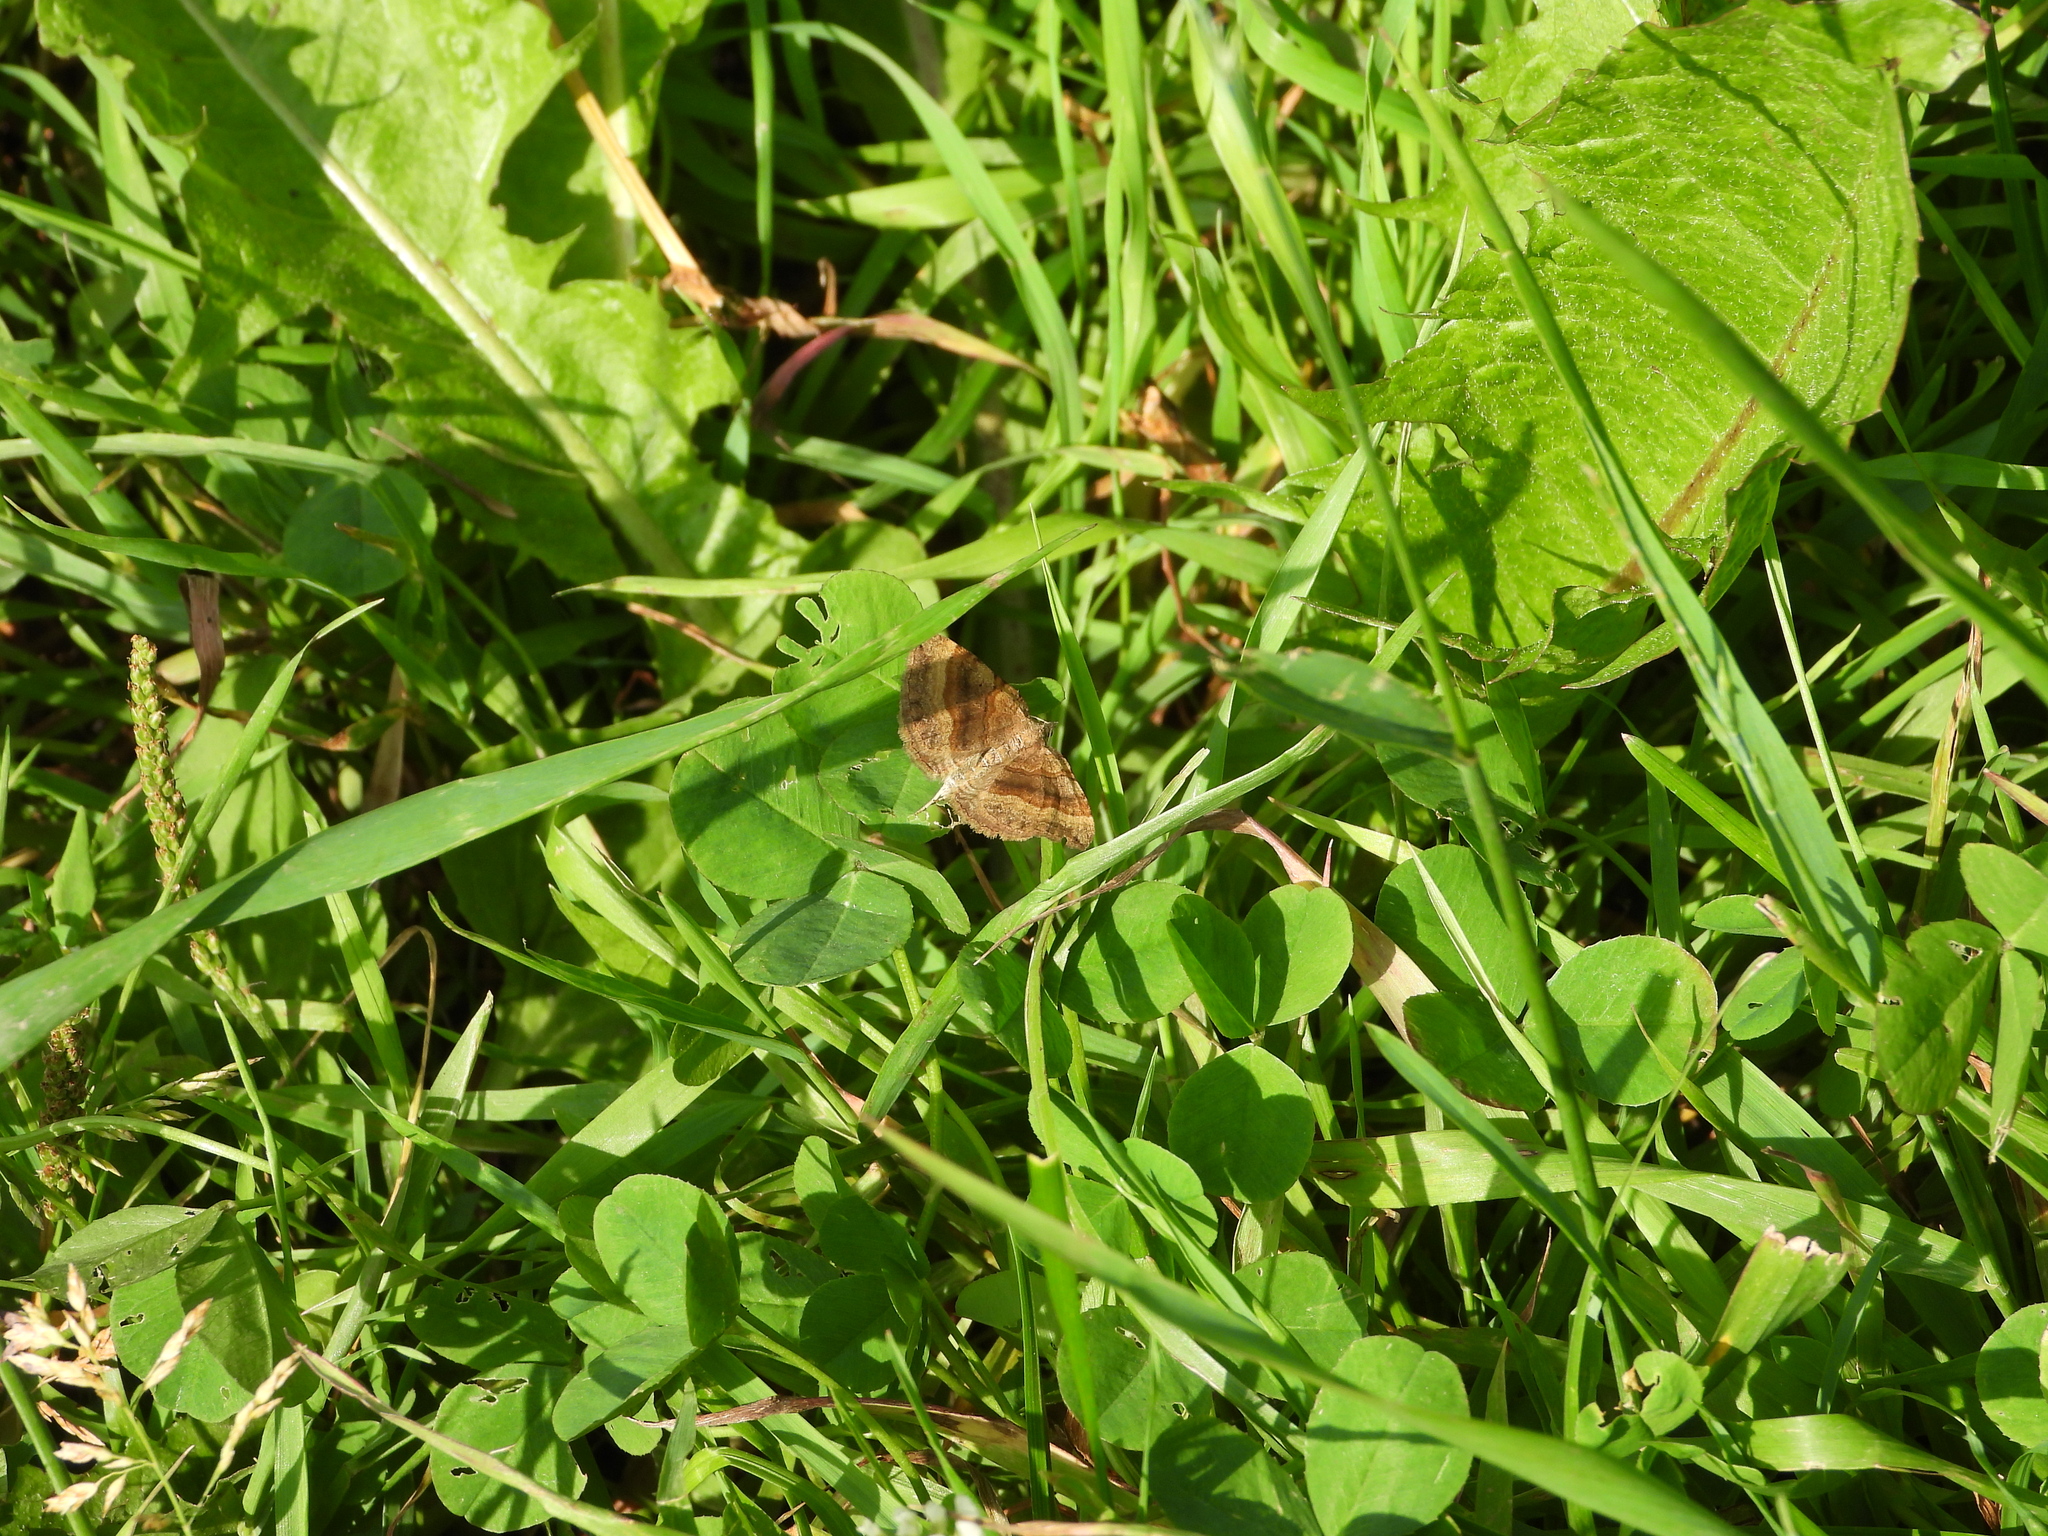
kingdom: Animalia
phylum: Arthropoda
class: Insecta
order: Lepidoptera
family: Geometridae
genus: Scotopteryx
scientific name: Scotopteryx chenopodiata
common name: Shaded broad-bar
